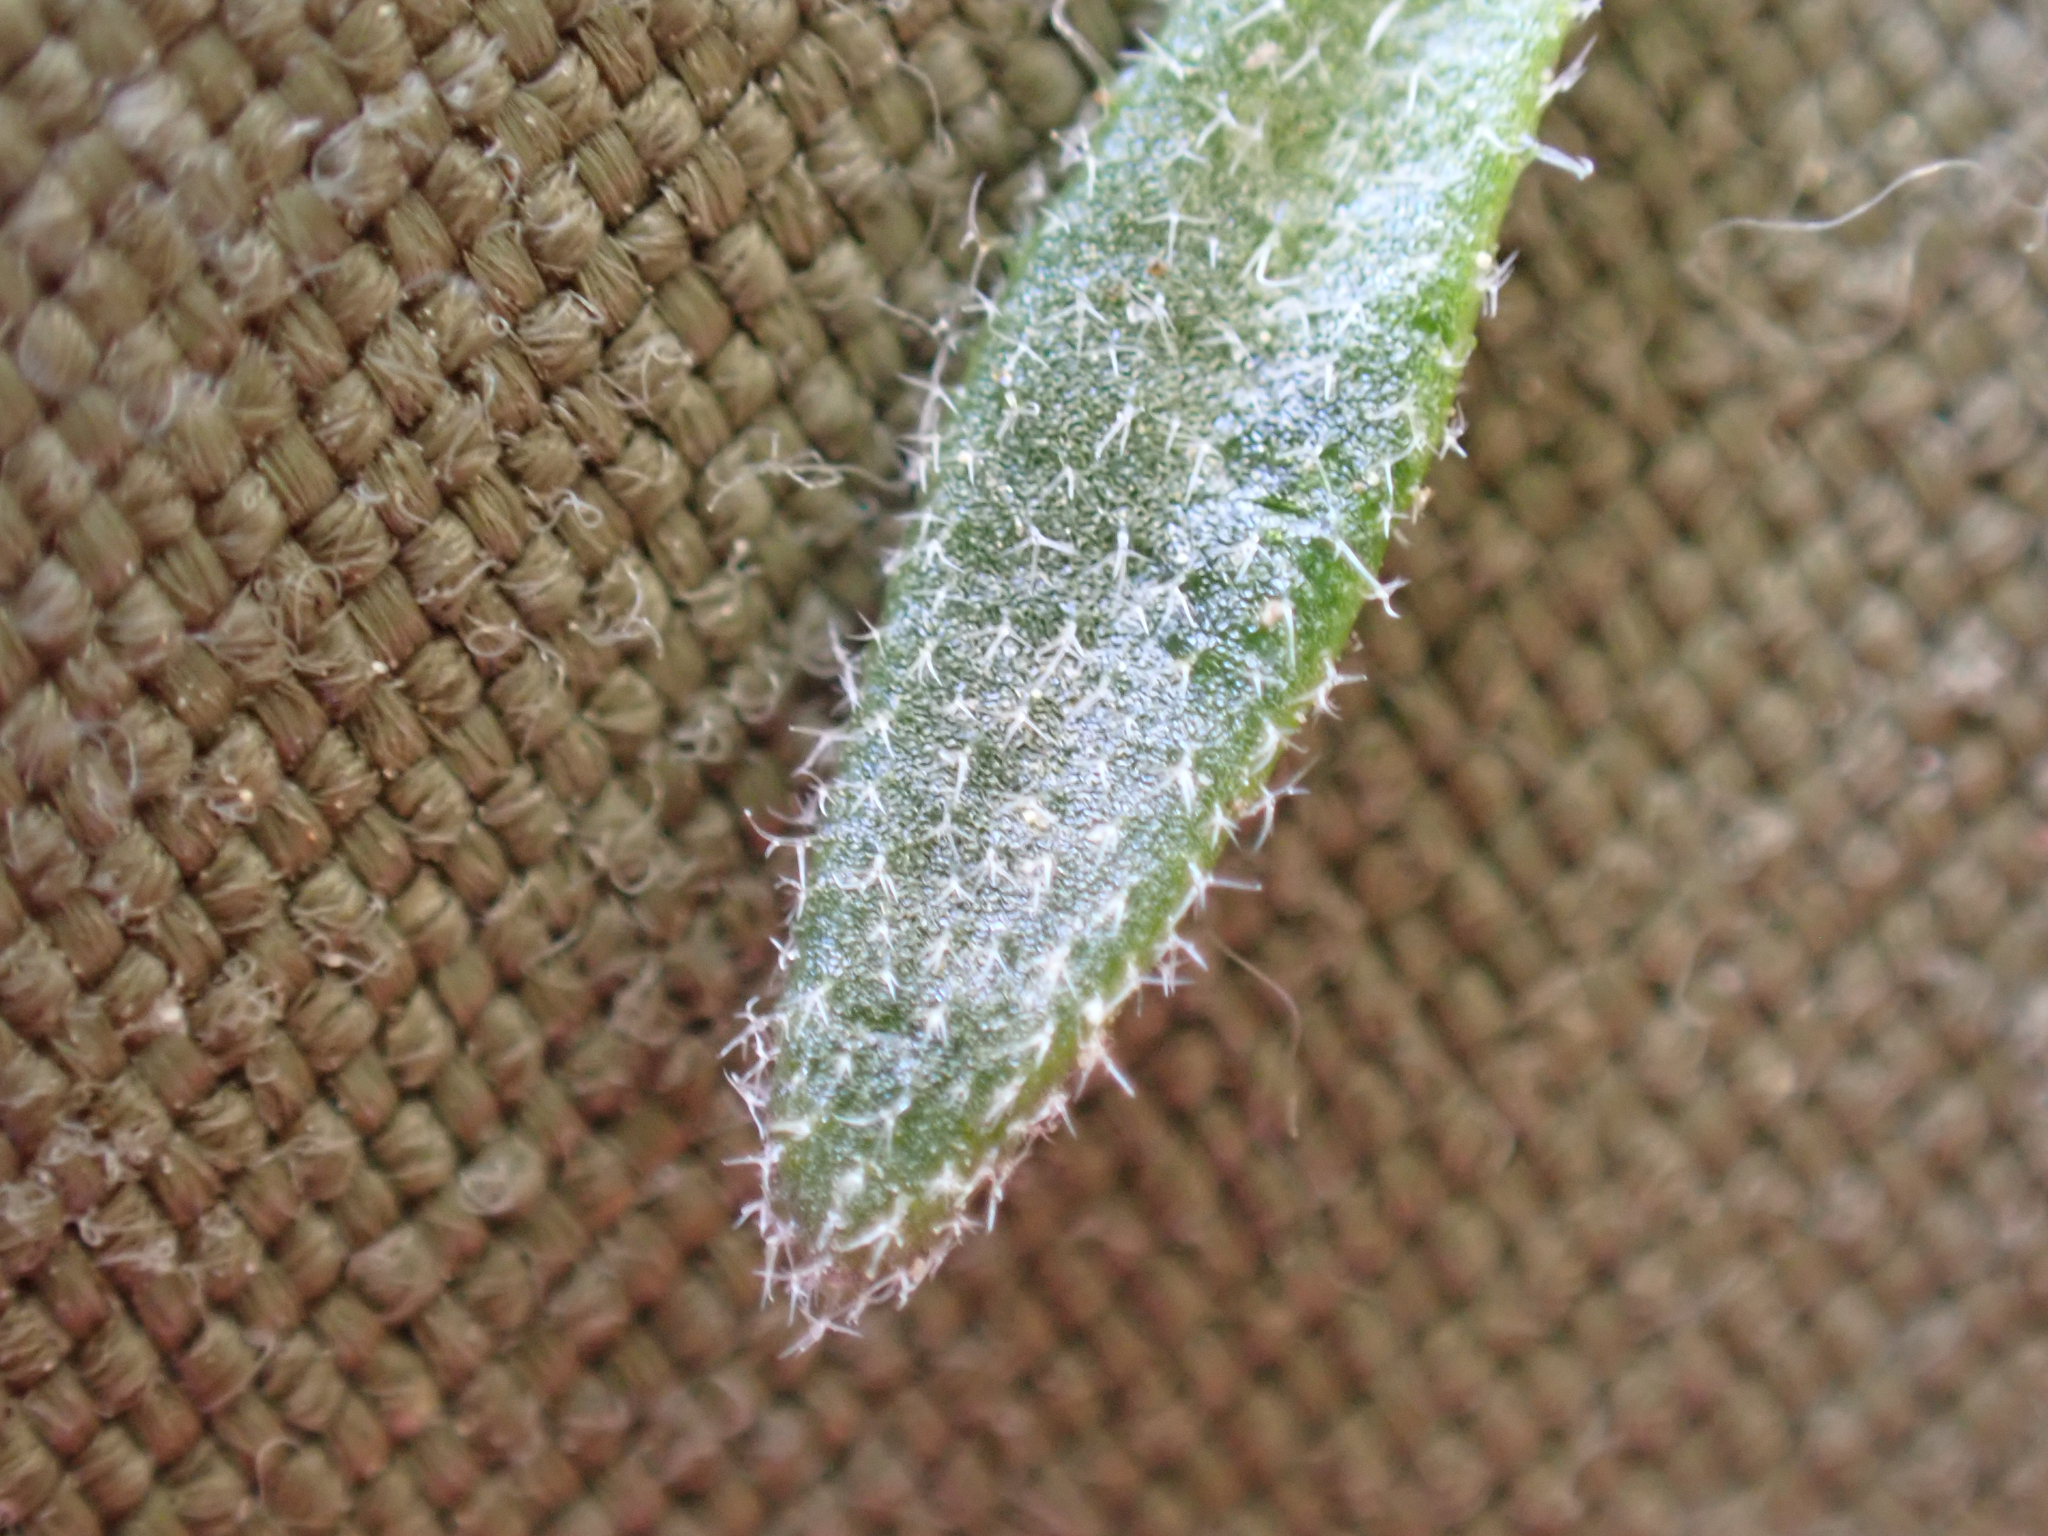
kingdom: Plantae
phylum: Tracheophyta
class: Magnoliopsida
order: Brassicales
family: Brassicaceae
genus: Draba
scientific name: Draba californica
